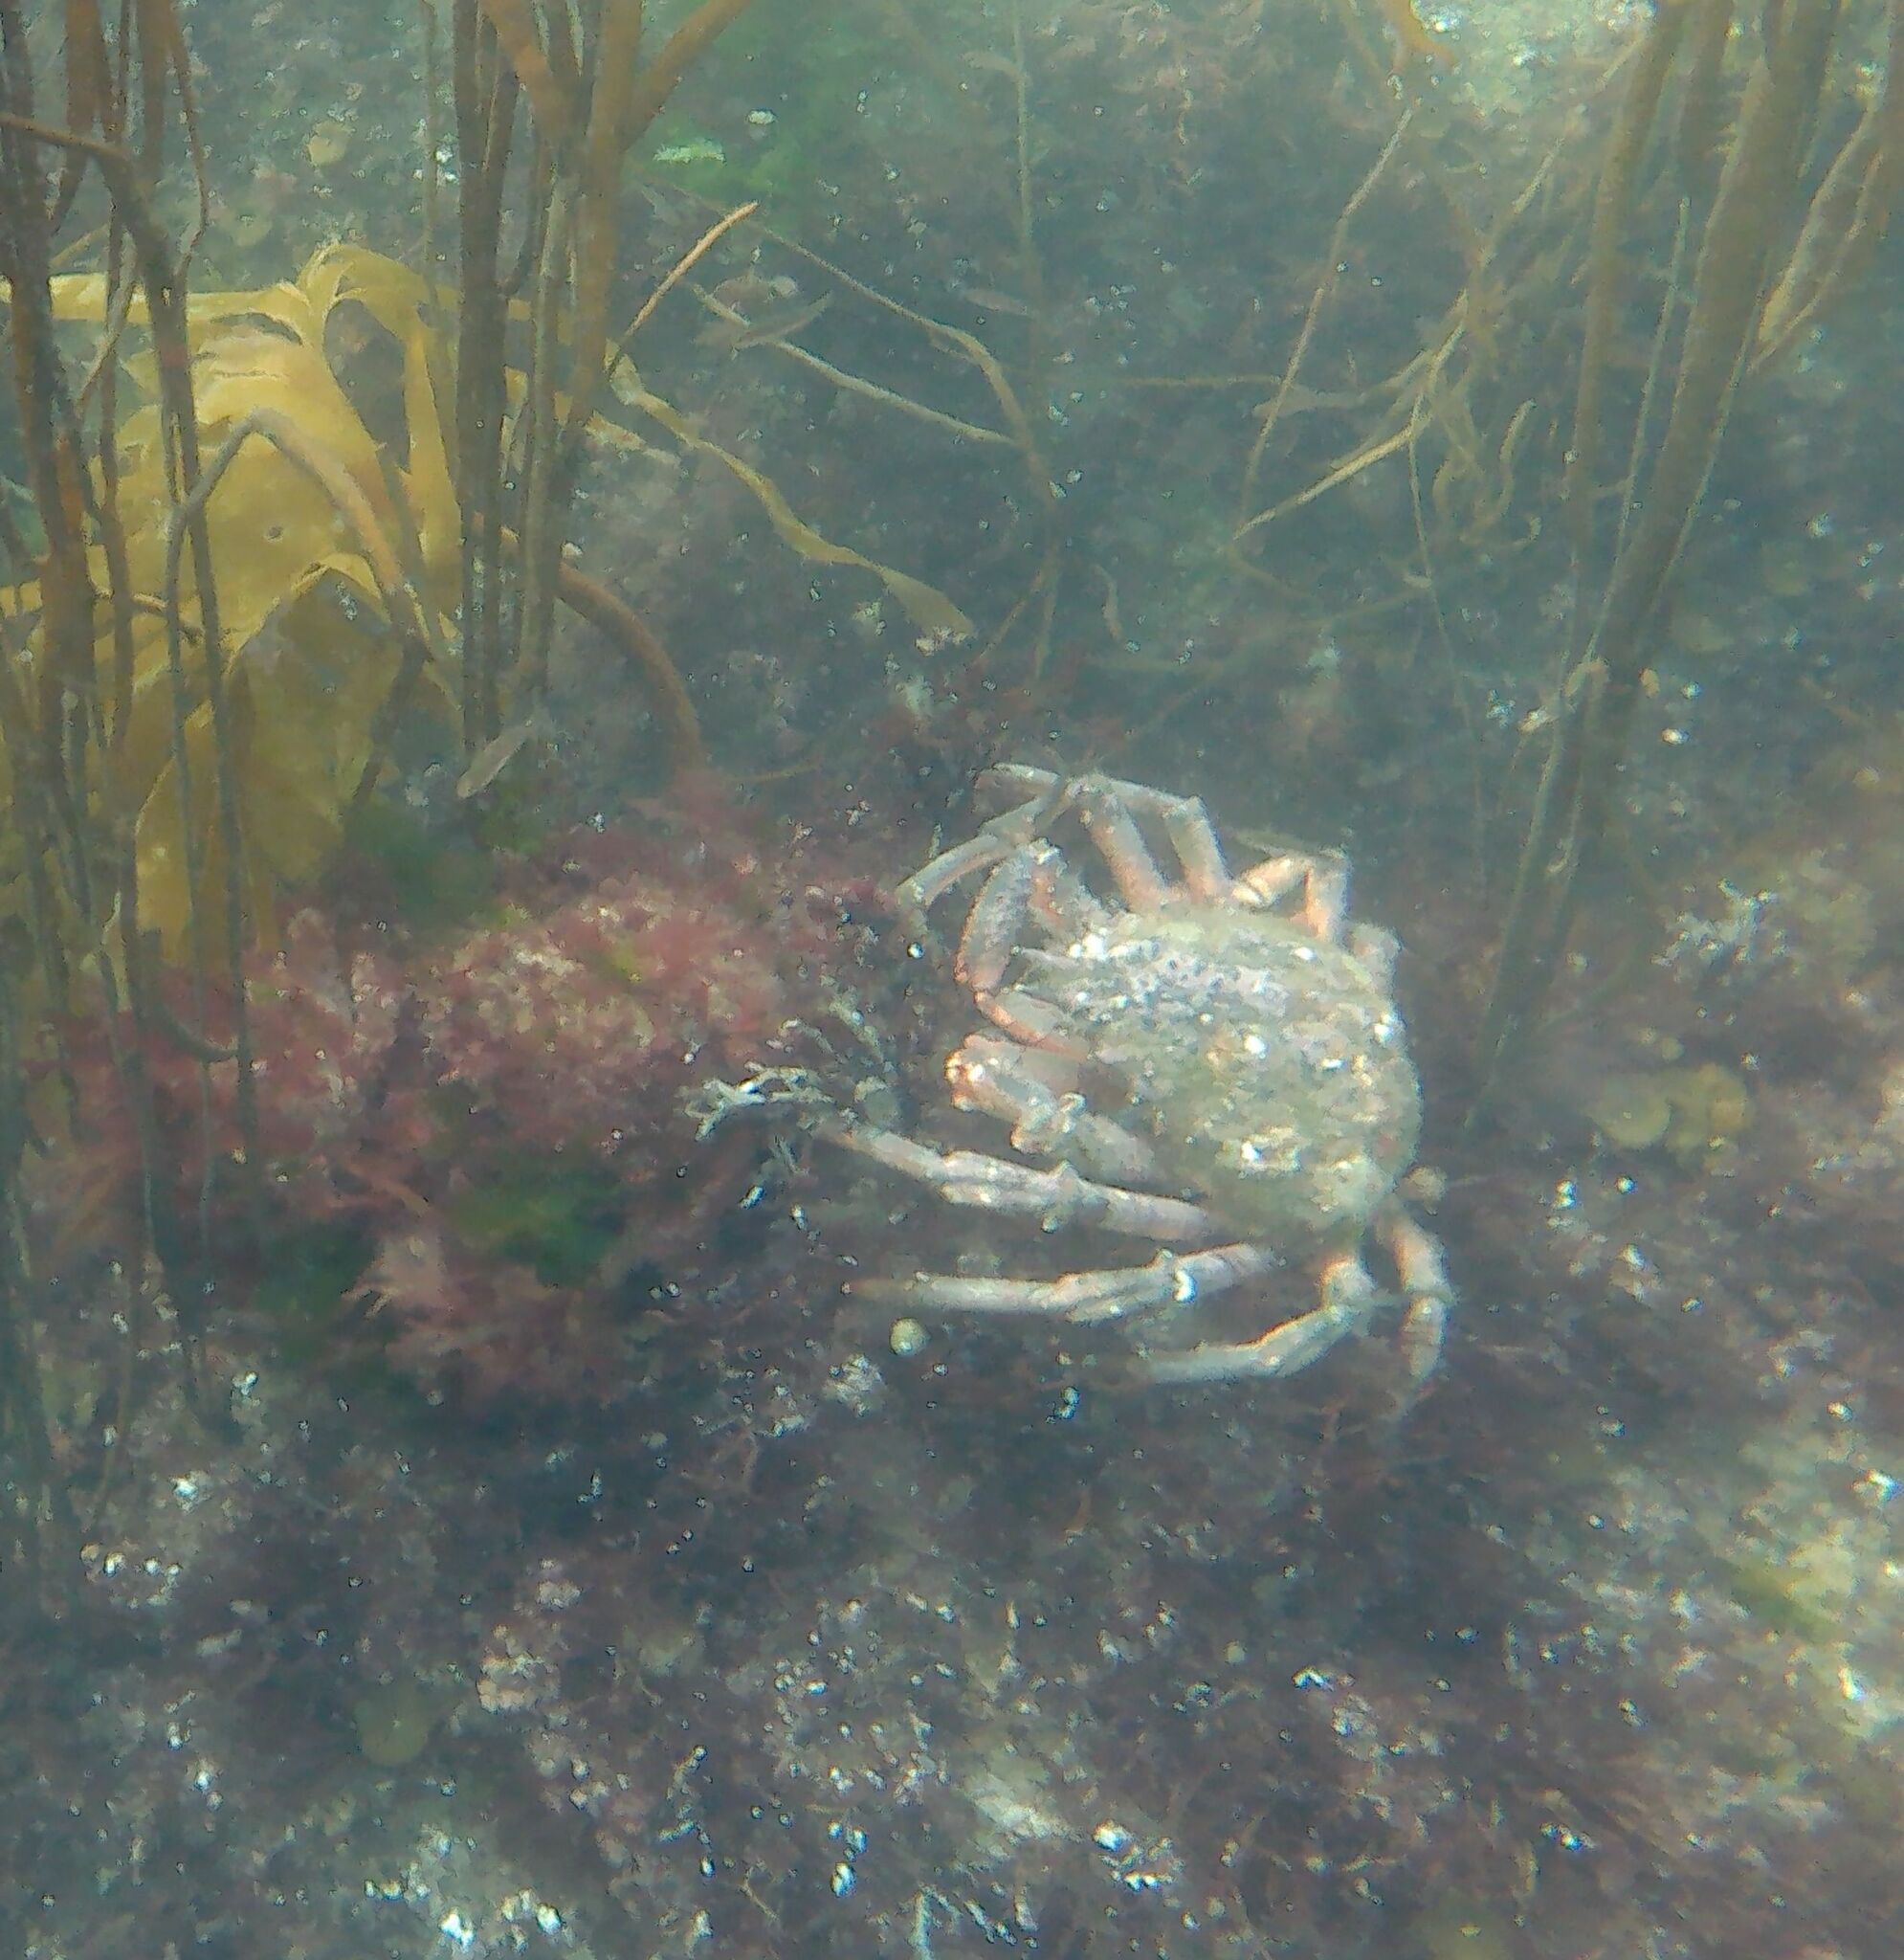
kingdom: Animalia
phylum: Arthropoda
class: Malacostraca
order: Decapoda
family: Majidae
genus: Maja
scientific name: Maja brachydactyla
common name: Common spider crab
